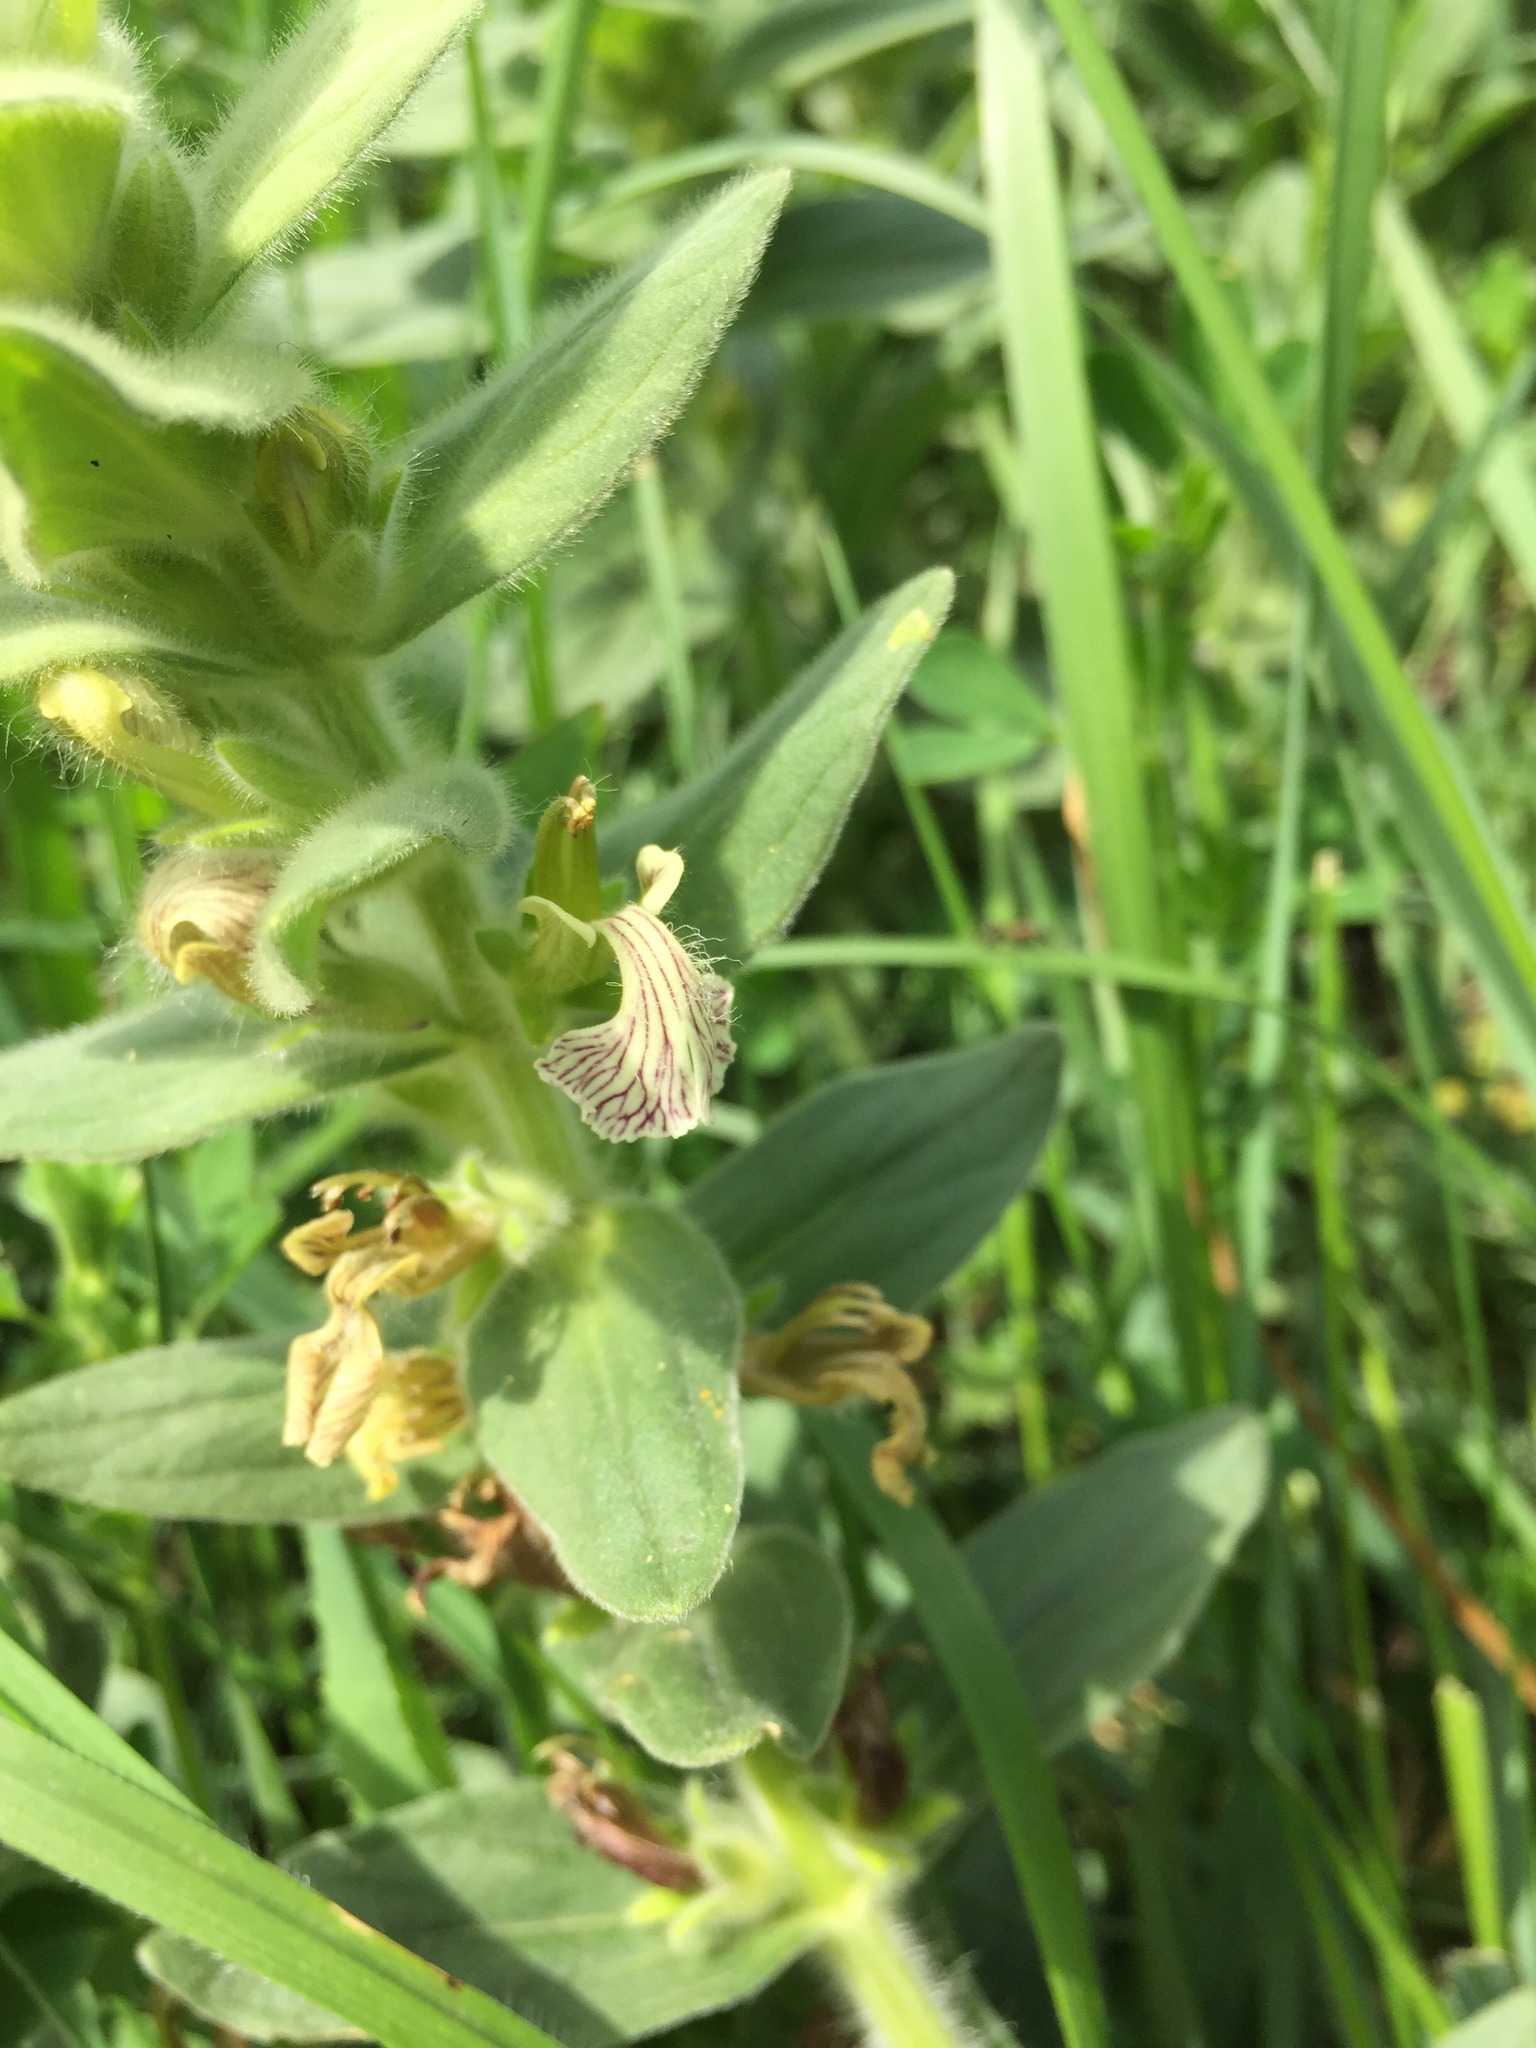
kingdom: Plantae
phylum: Tracheophyta
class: Magnoliopsida
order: Lamiales
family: Lamiaceae
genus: Ajuga
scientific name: Ajuga laxmannii
